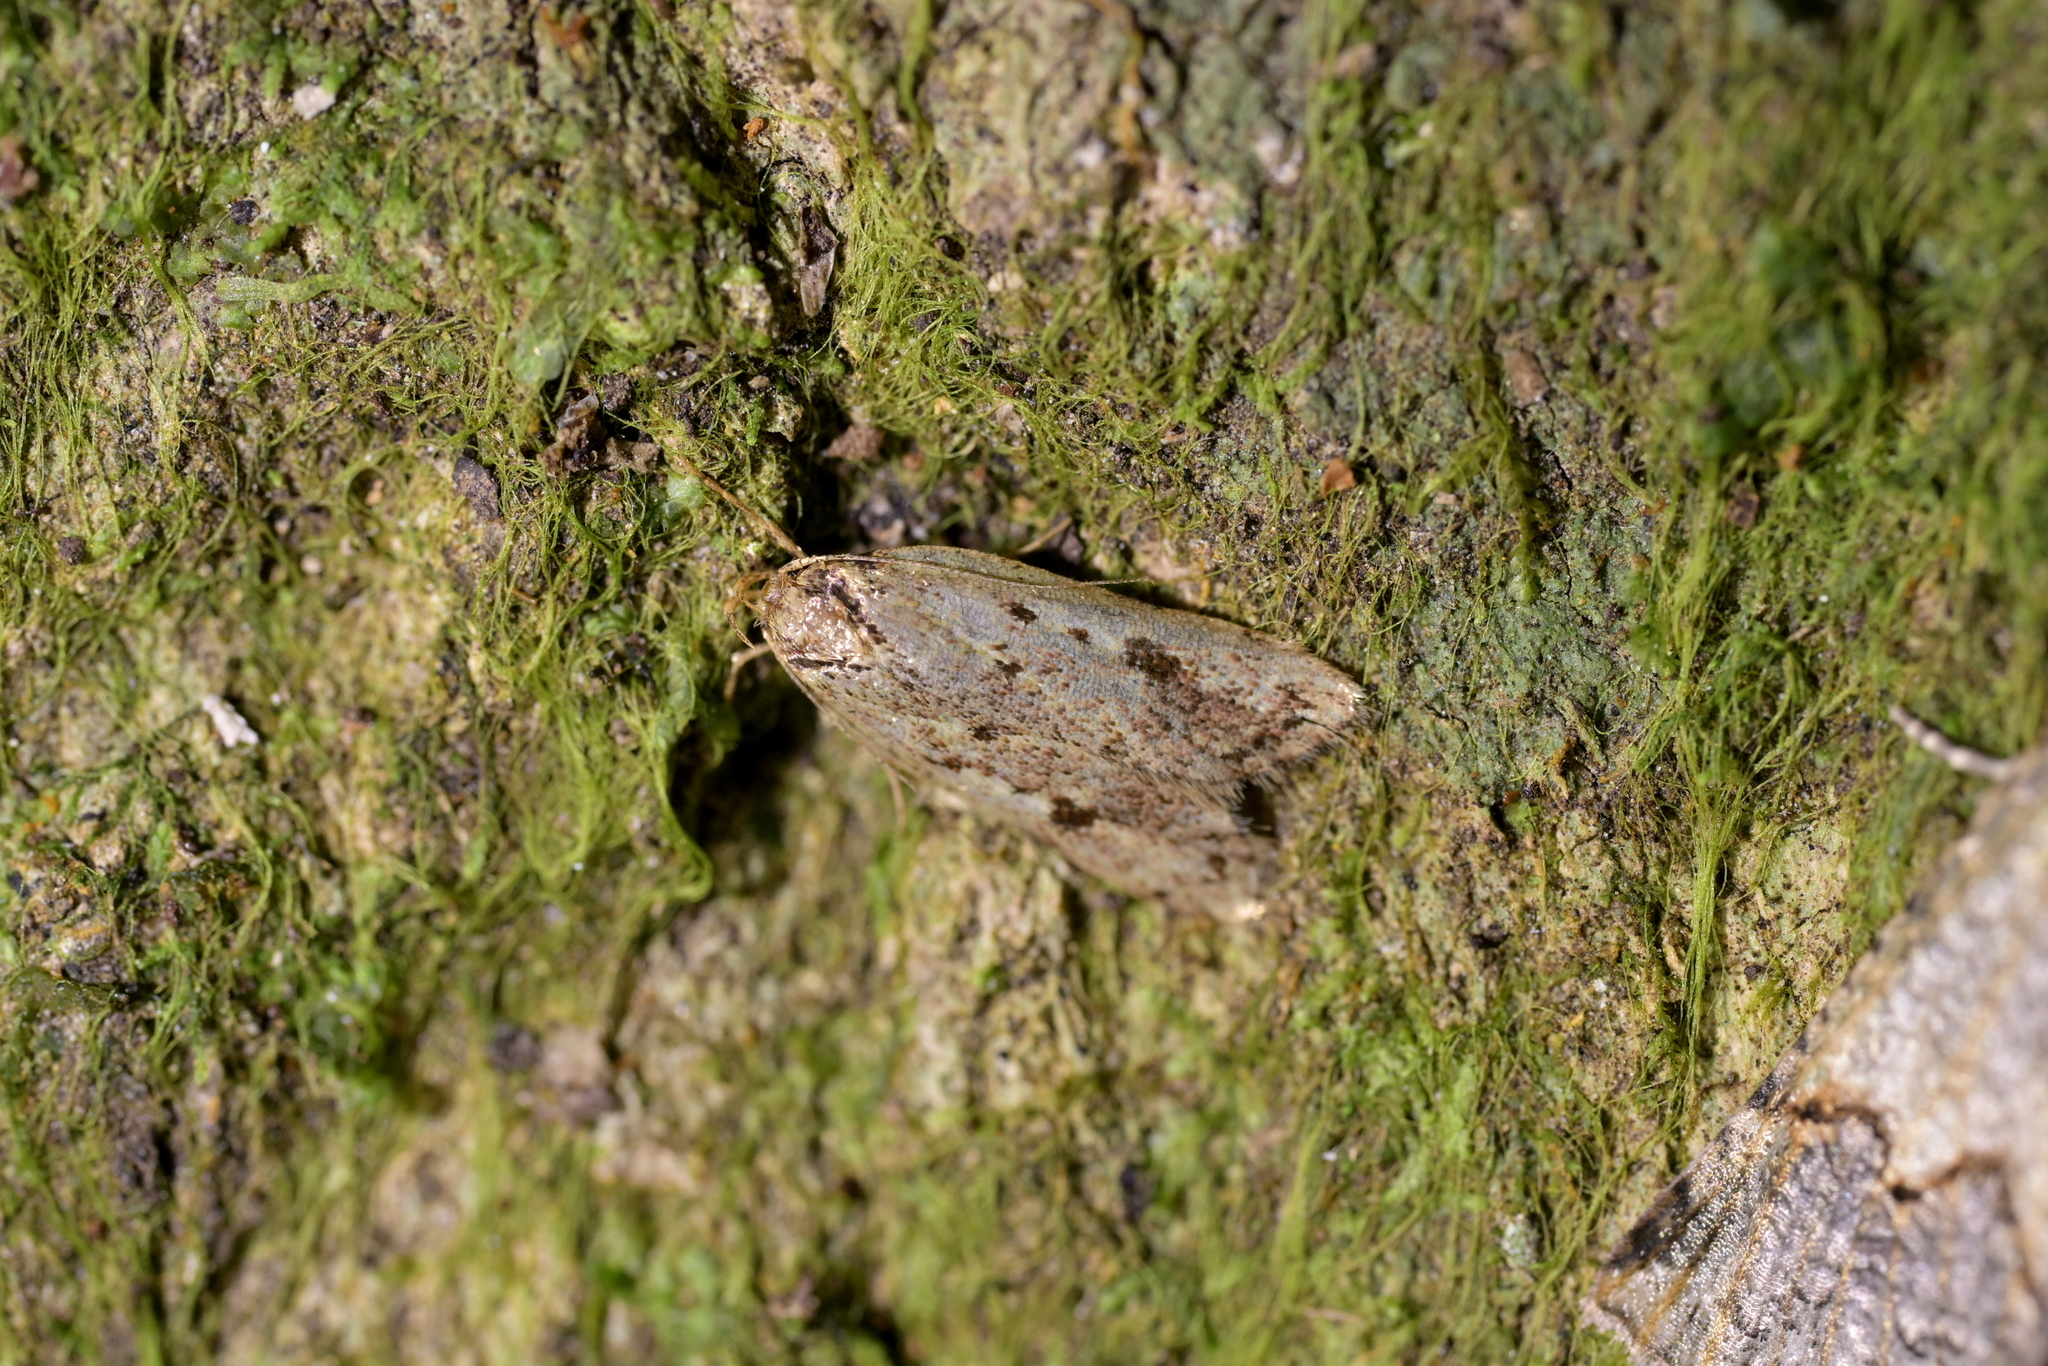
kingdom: Animalia
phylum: Arthropoda
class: Insecta
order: Lepidoptera
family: Oecophoridae
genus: Eulechria
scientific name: Eulechria zophoessa
